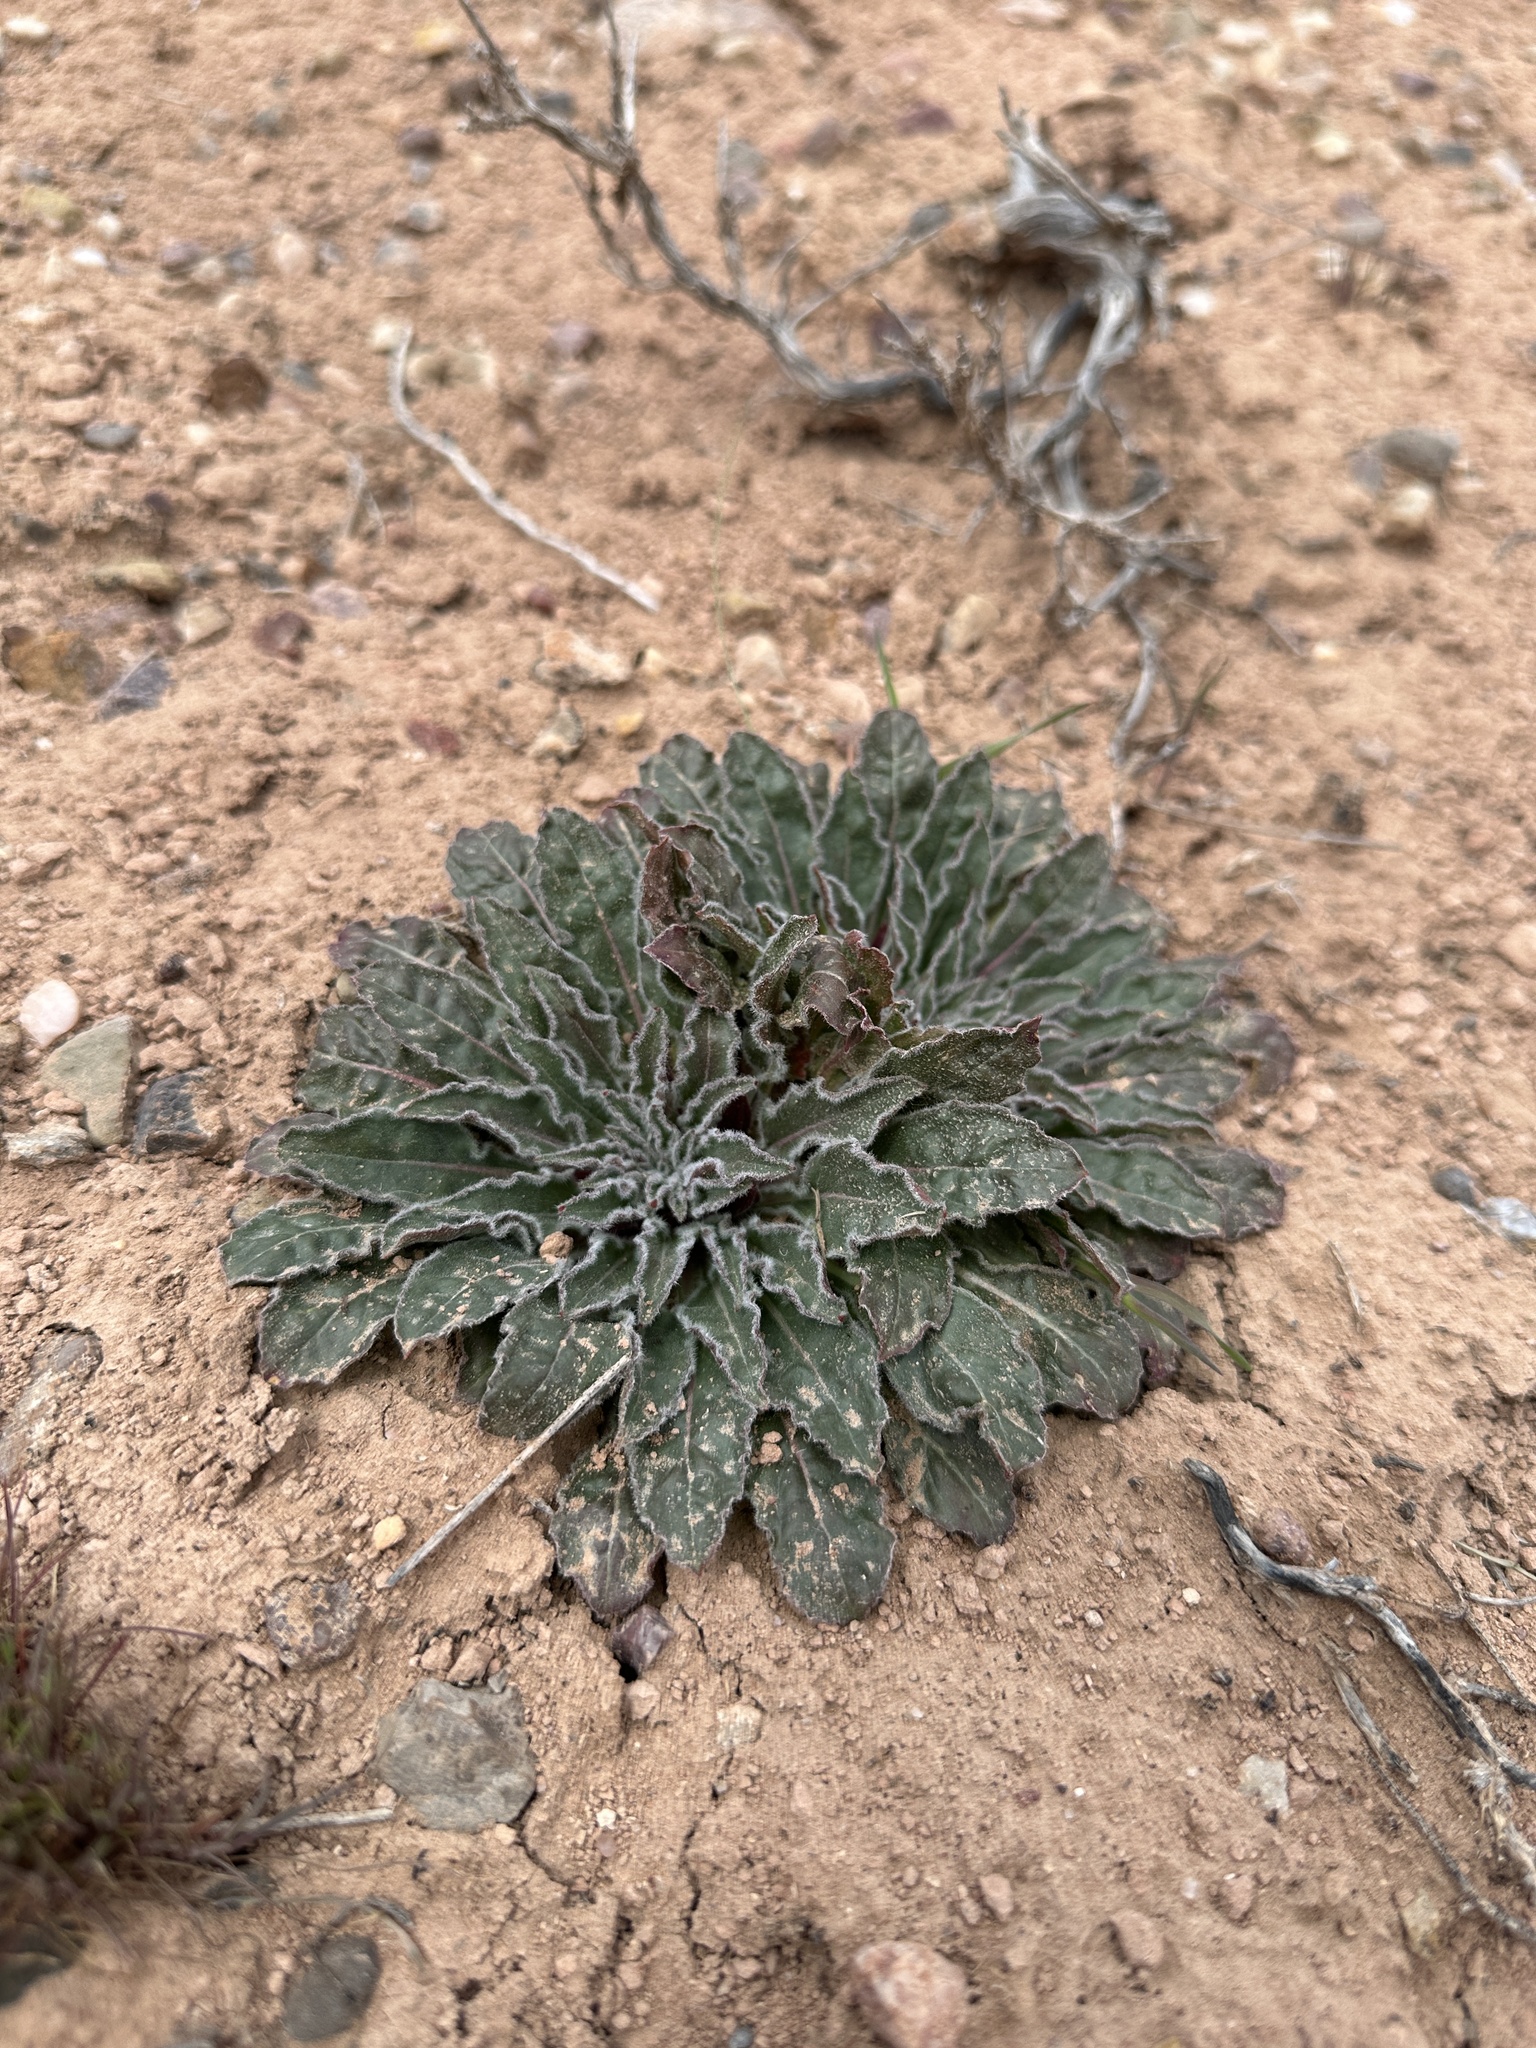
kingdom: Plantae
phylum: Tracheophyta
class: Magnoliopsida
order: Myrtales
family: Onagraceae
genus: Oenothera
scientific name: Oenothera cespitosa
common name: Tufted evening-primrose
